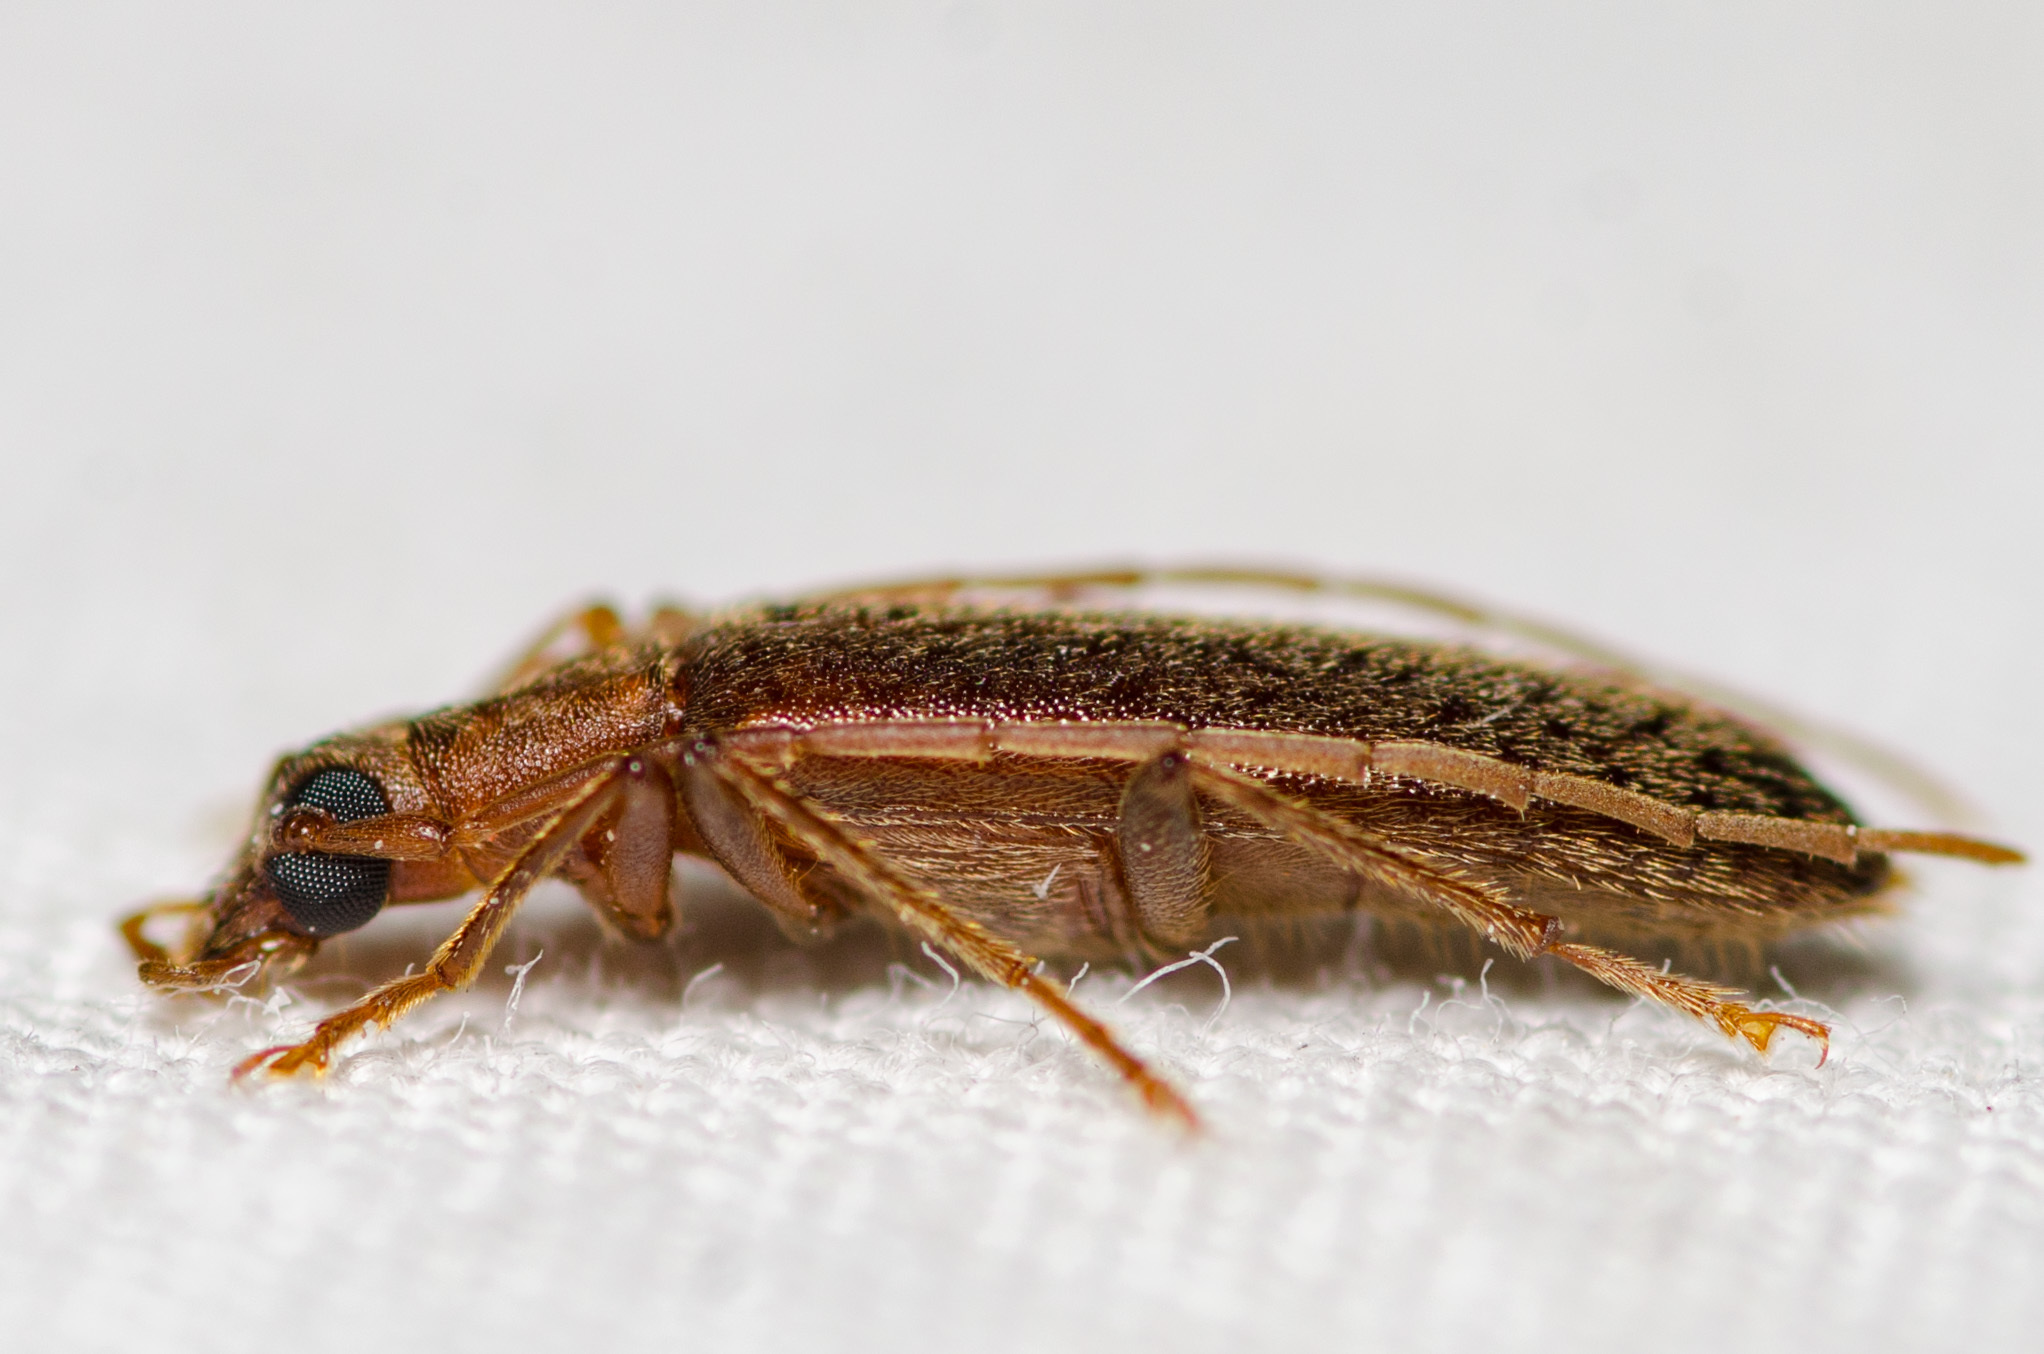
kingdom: Animalia
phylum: Arthropoda
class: Insecta
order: Coleoptera
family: Oedemeridae
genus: Sparedrus
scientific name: Sparedrus aspersus
